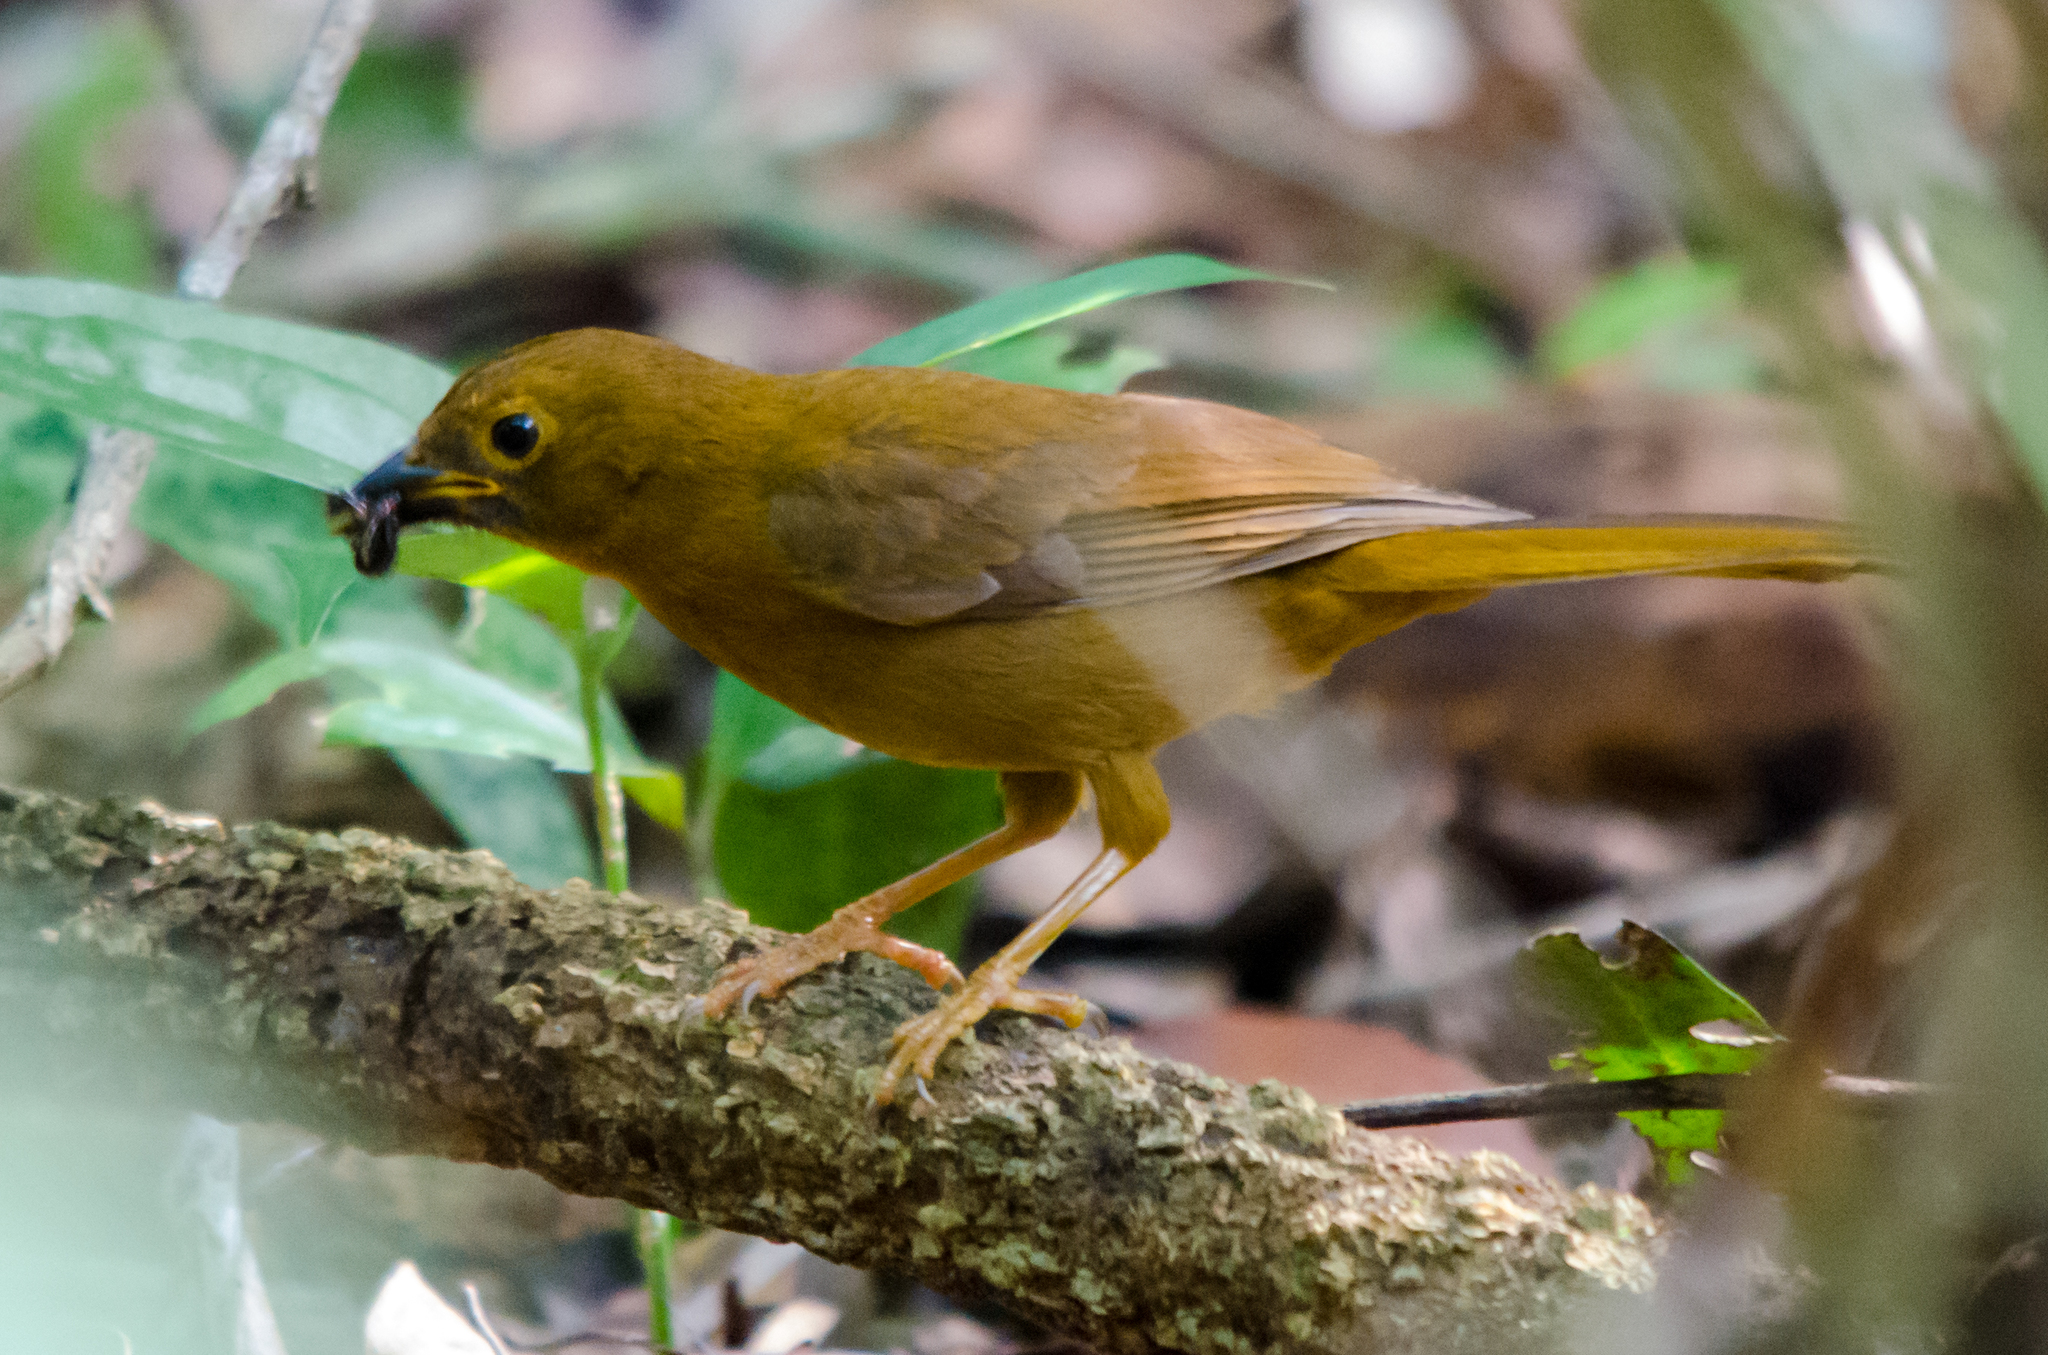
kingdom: Animalia
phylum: Chordata
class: Aves
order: Passeriformes
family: Cardinalidae
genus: Habia
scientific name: Habia fuscicauda
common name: Red-throated ant-tanager
